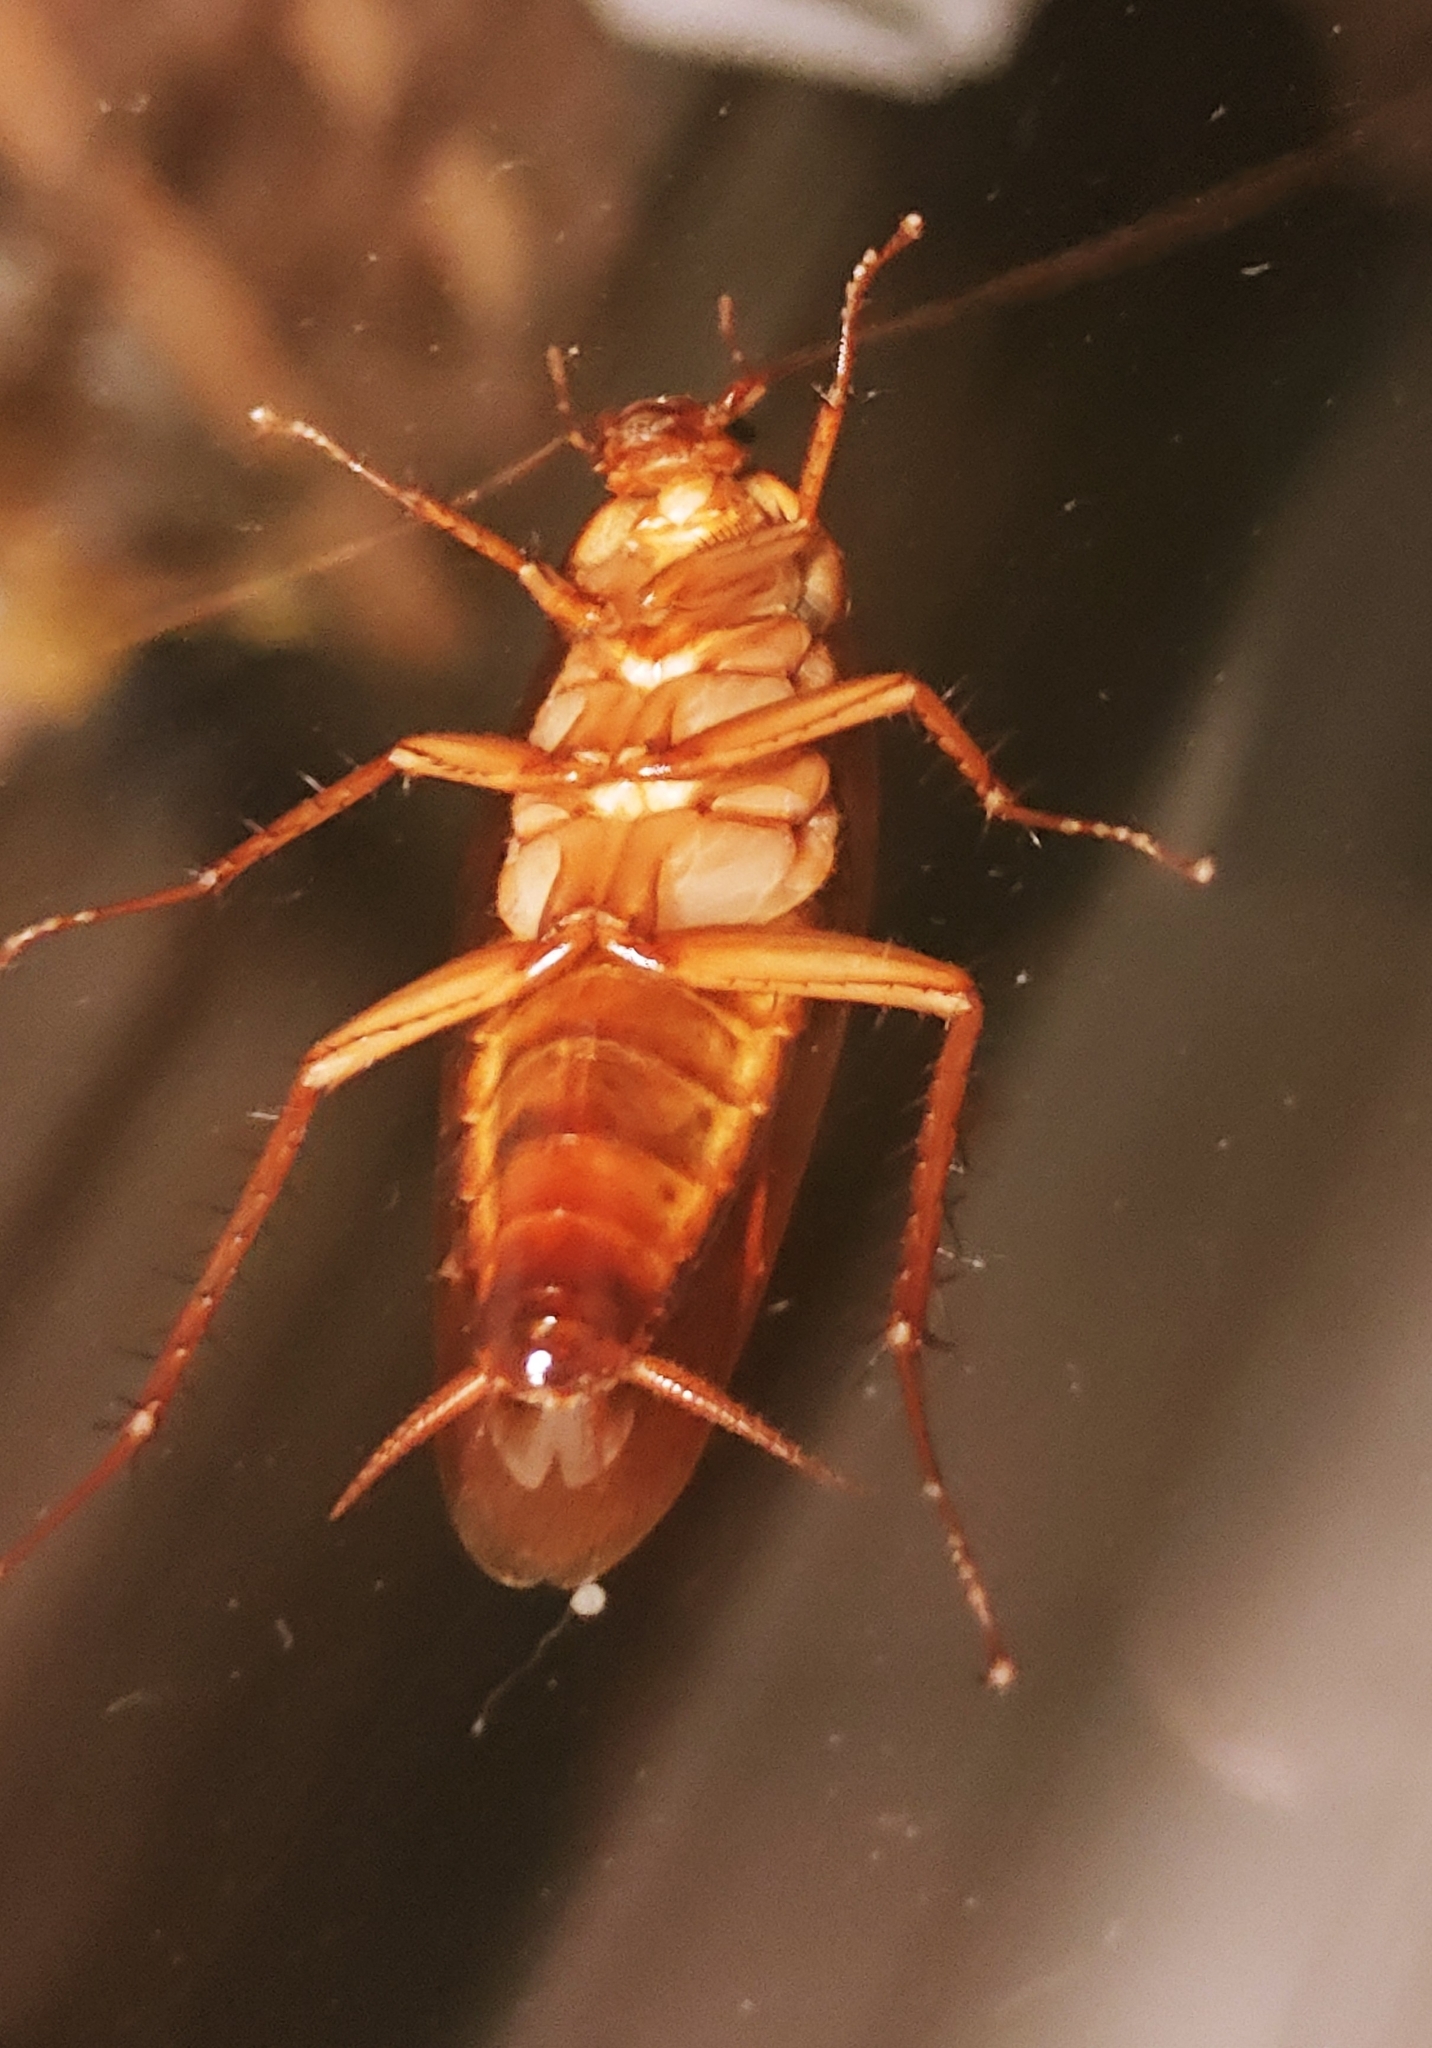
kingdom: Animalia
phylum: Arthropoda
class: Insecta
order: Blattodea
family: Blattidae
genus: Periplaneta
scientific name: Periplaneta americana
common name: American cockroach
